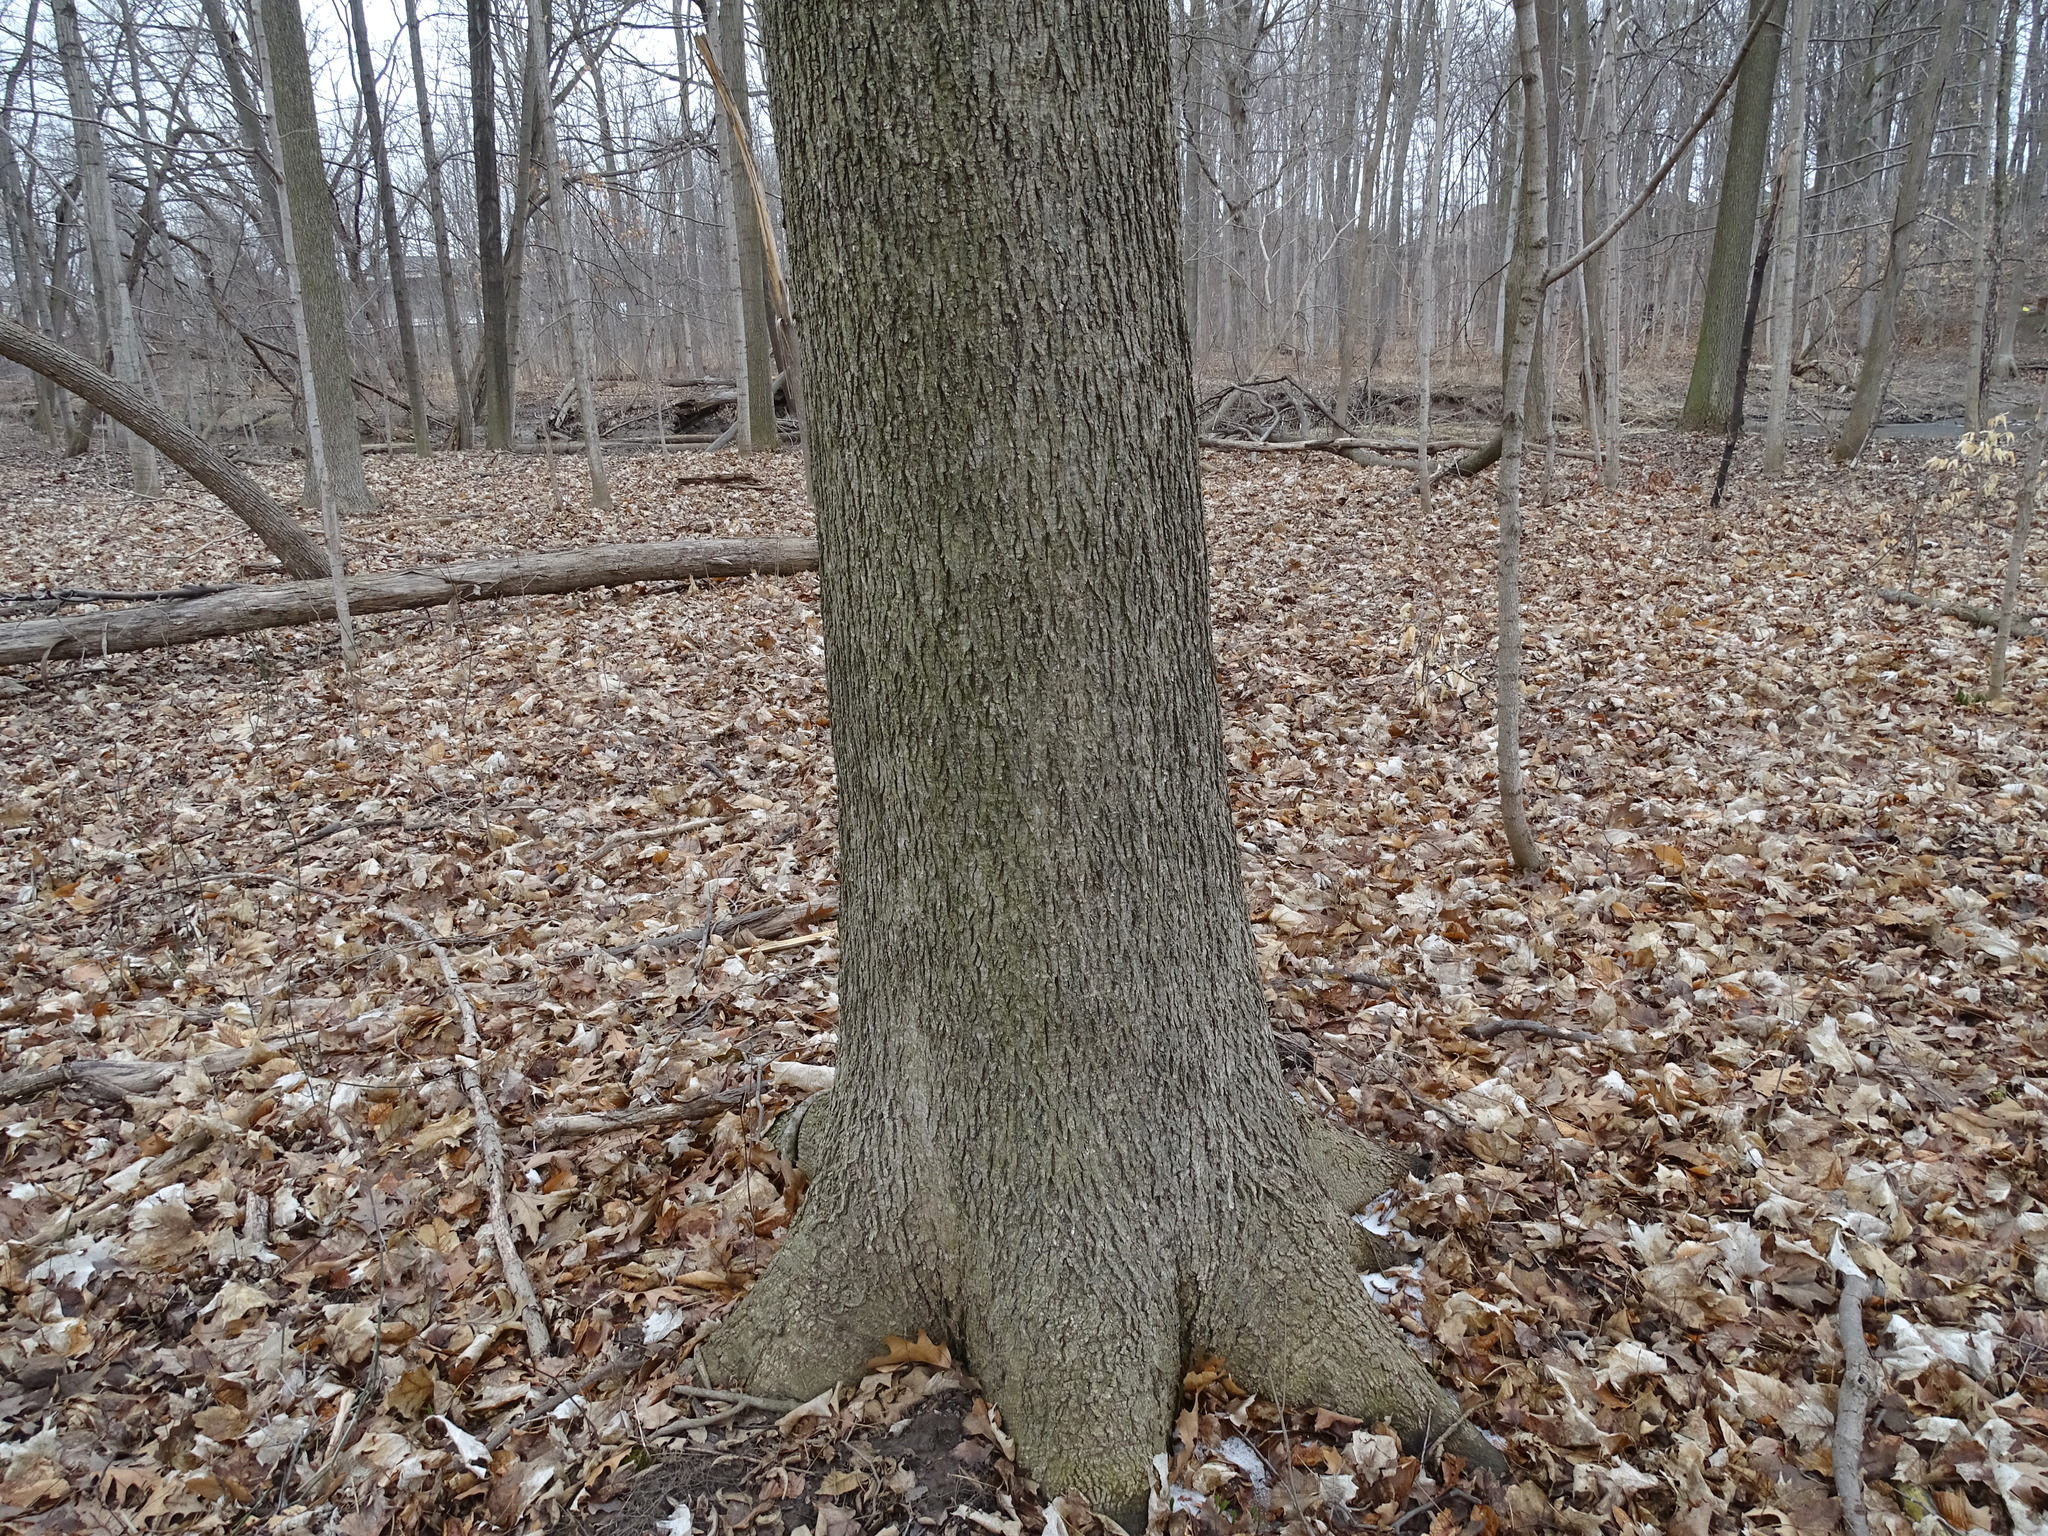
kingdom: Plantae
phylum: Tracheophyta
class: Magnoliopsida
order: Fagales
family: Juglandaceae
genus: Carya
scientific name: Carya cordiformis
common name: Bitternut hickory
